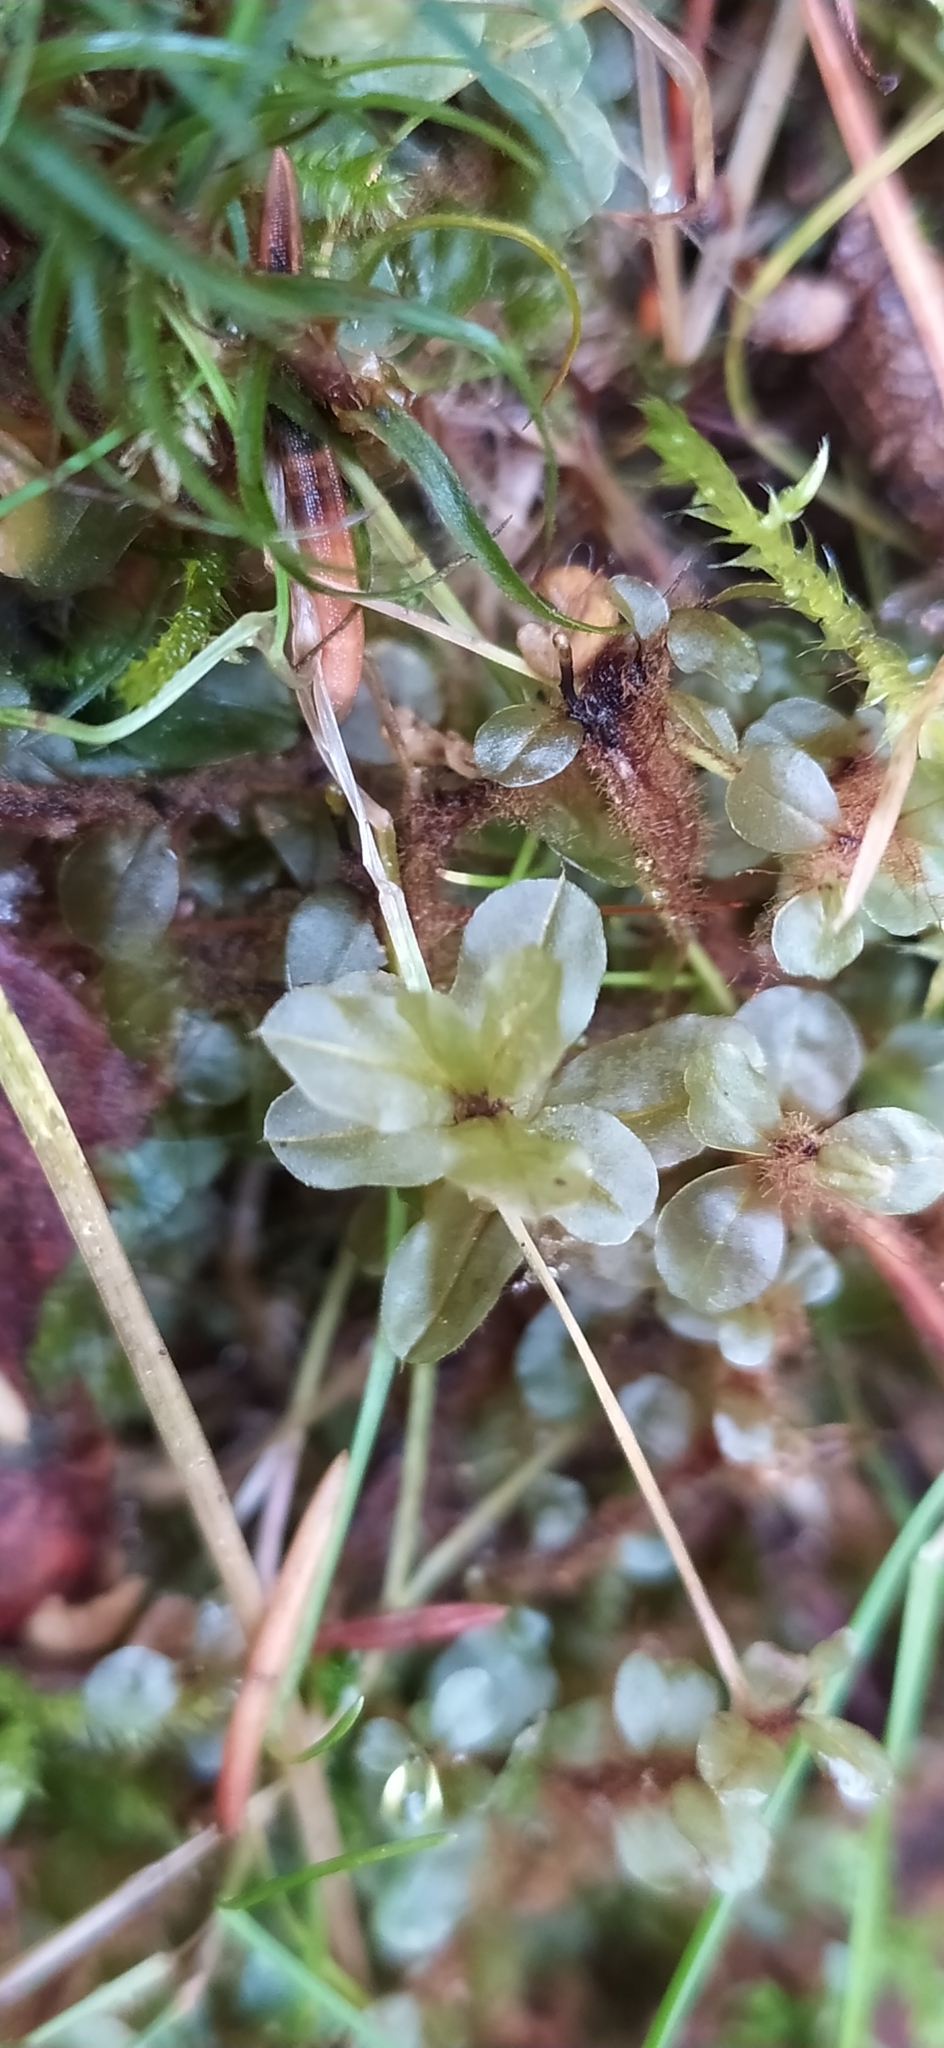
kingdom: Plantae
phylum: Bryophyta
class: Bryopsida
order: Bryales
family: Mniaceae
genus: Rhizomnium
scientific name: Rhizomnium punctatum
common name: Dotted leafy moss
